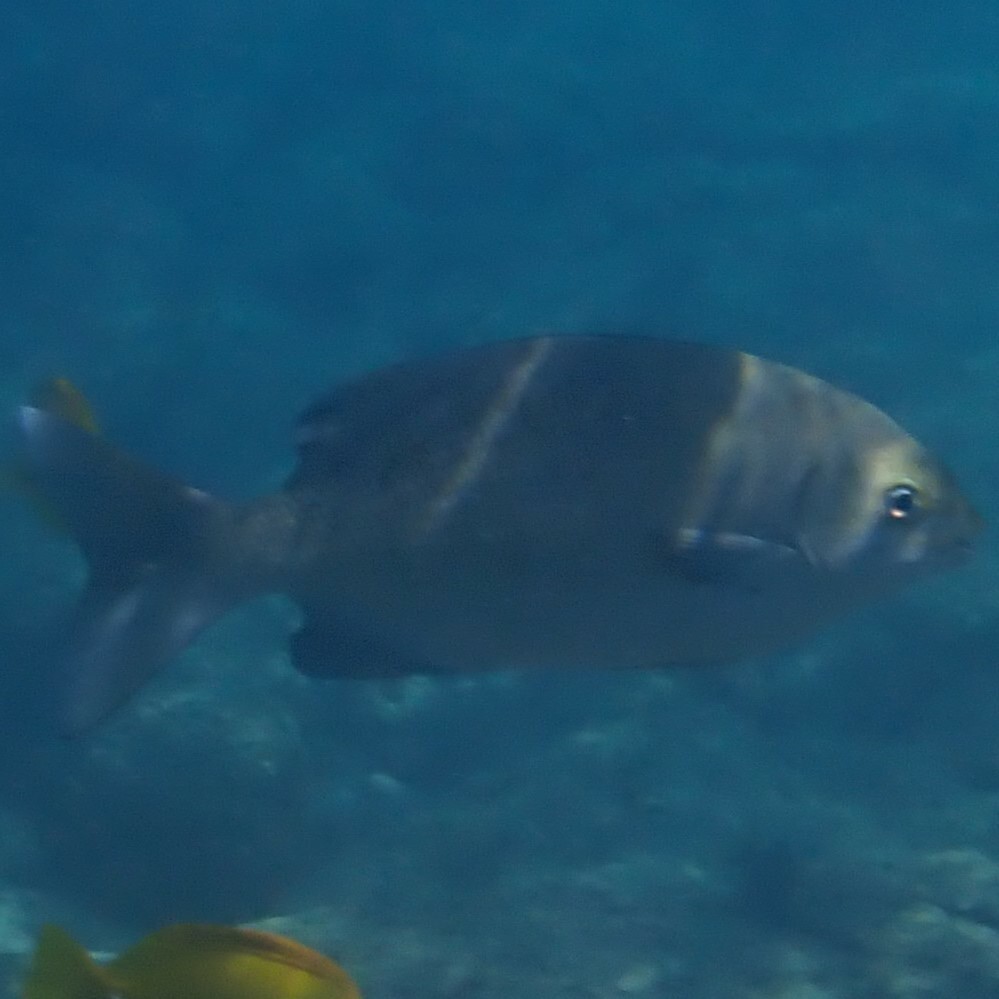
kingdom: Animalia
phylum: Chordata
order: Perciformes
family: Kyphosidae
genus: Kyphosus
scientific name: Kyphosus cinerascens
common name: Topsail drummer
